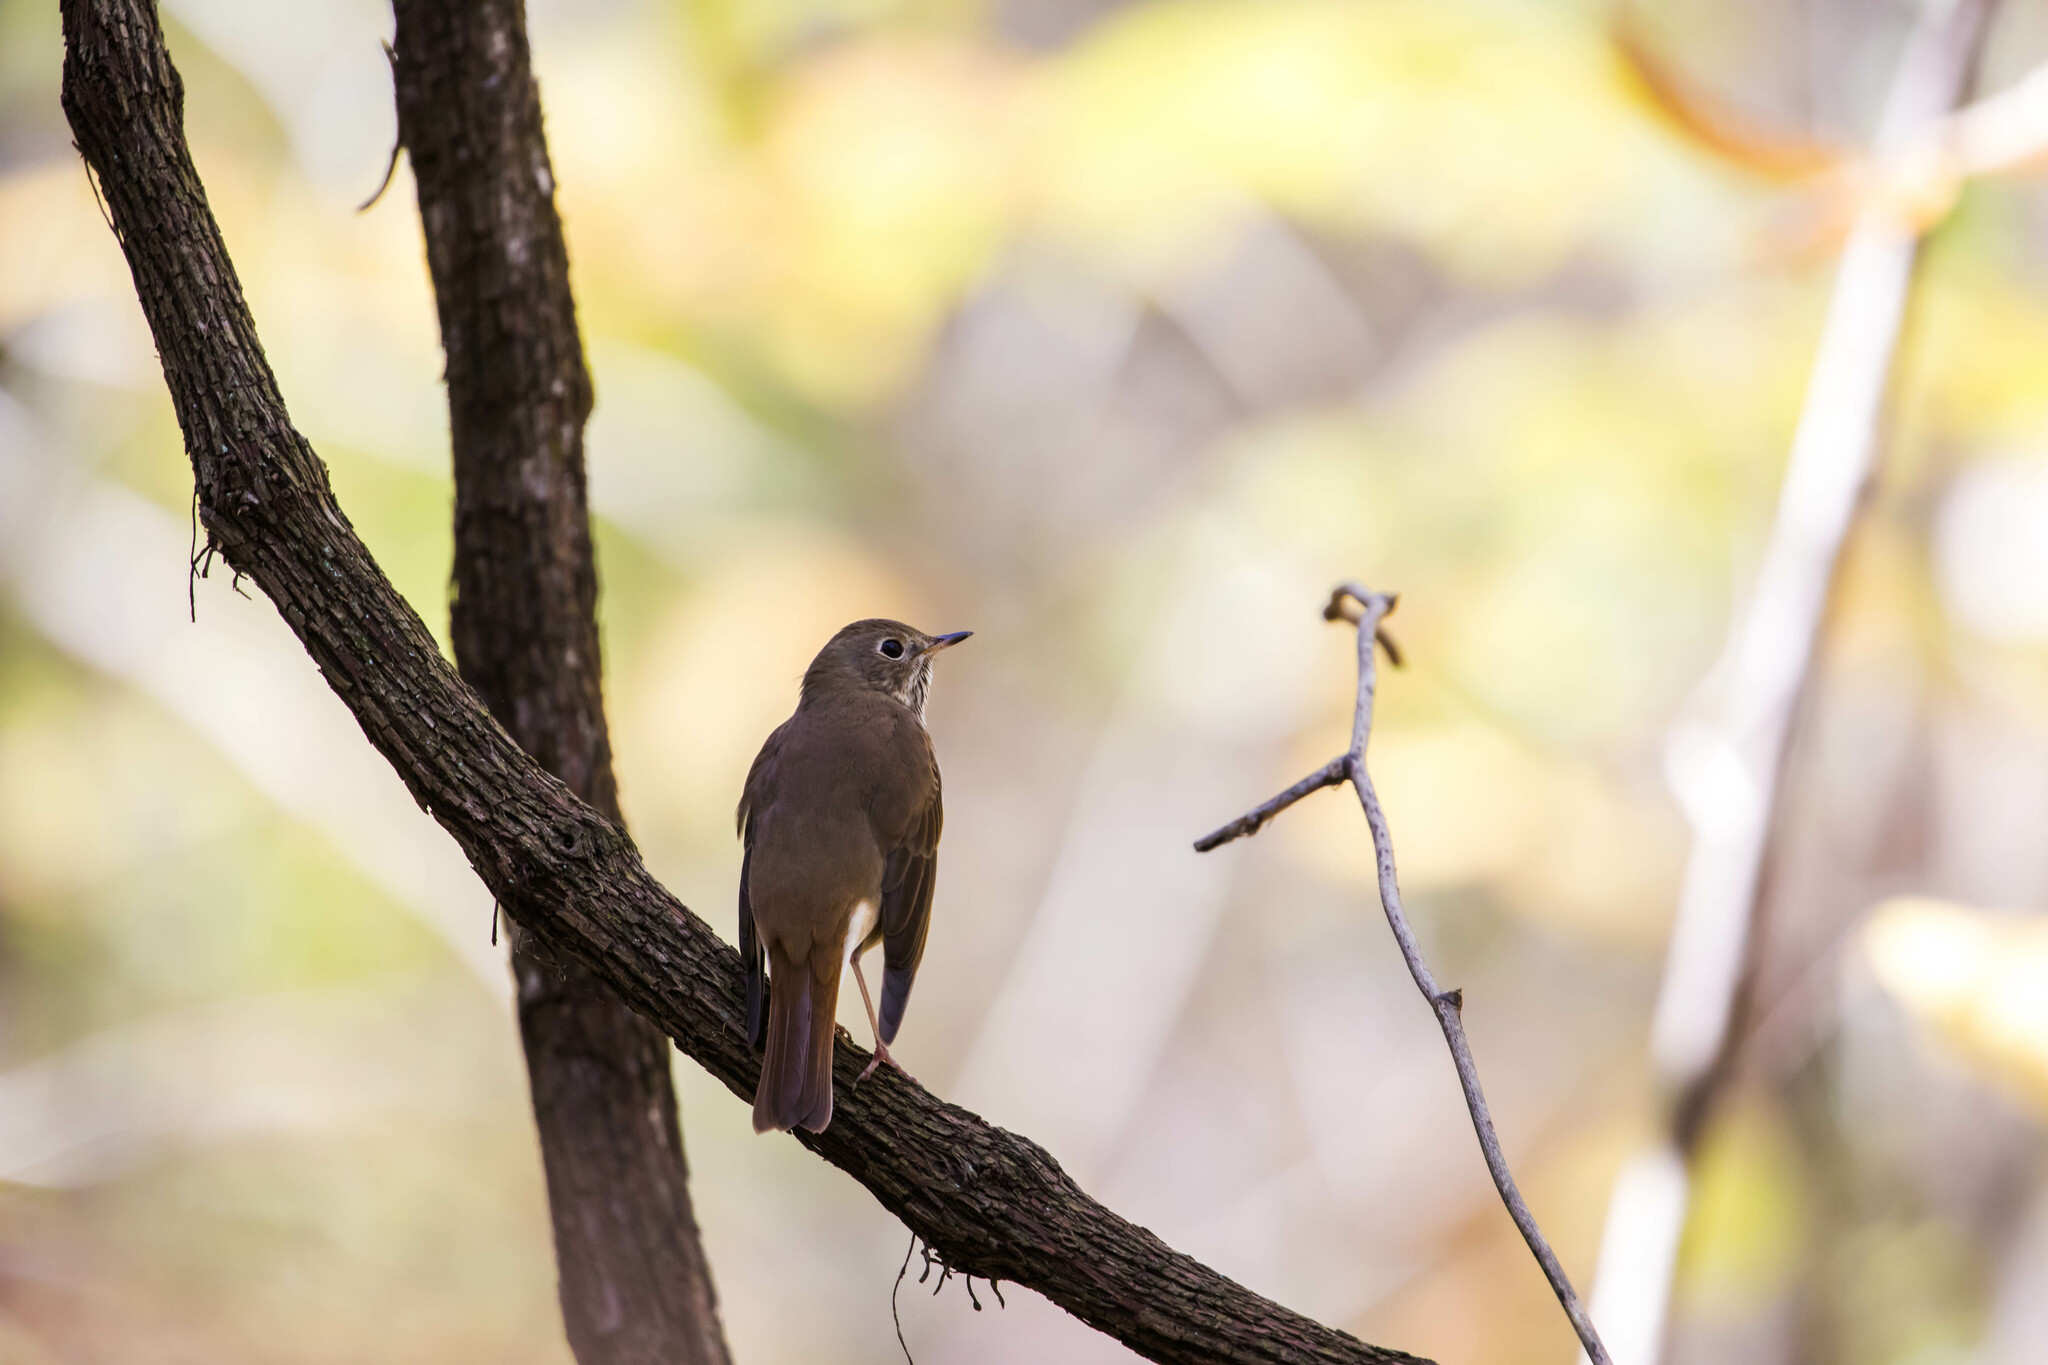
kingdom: Animalia
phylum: Chordata
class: Aves
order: Passeriformes
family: Turdidae
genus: Catharus
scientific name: Catharus guttatus
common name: Hermit thrush
